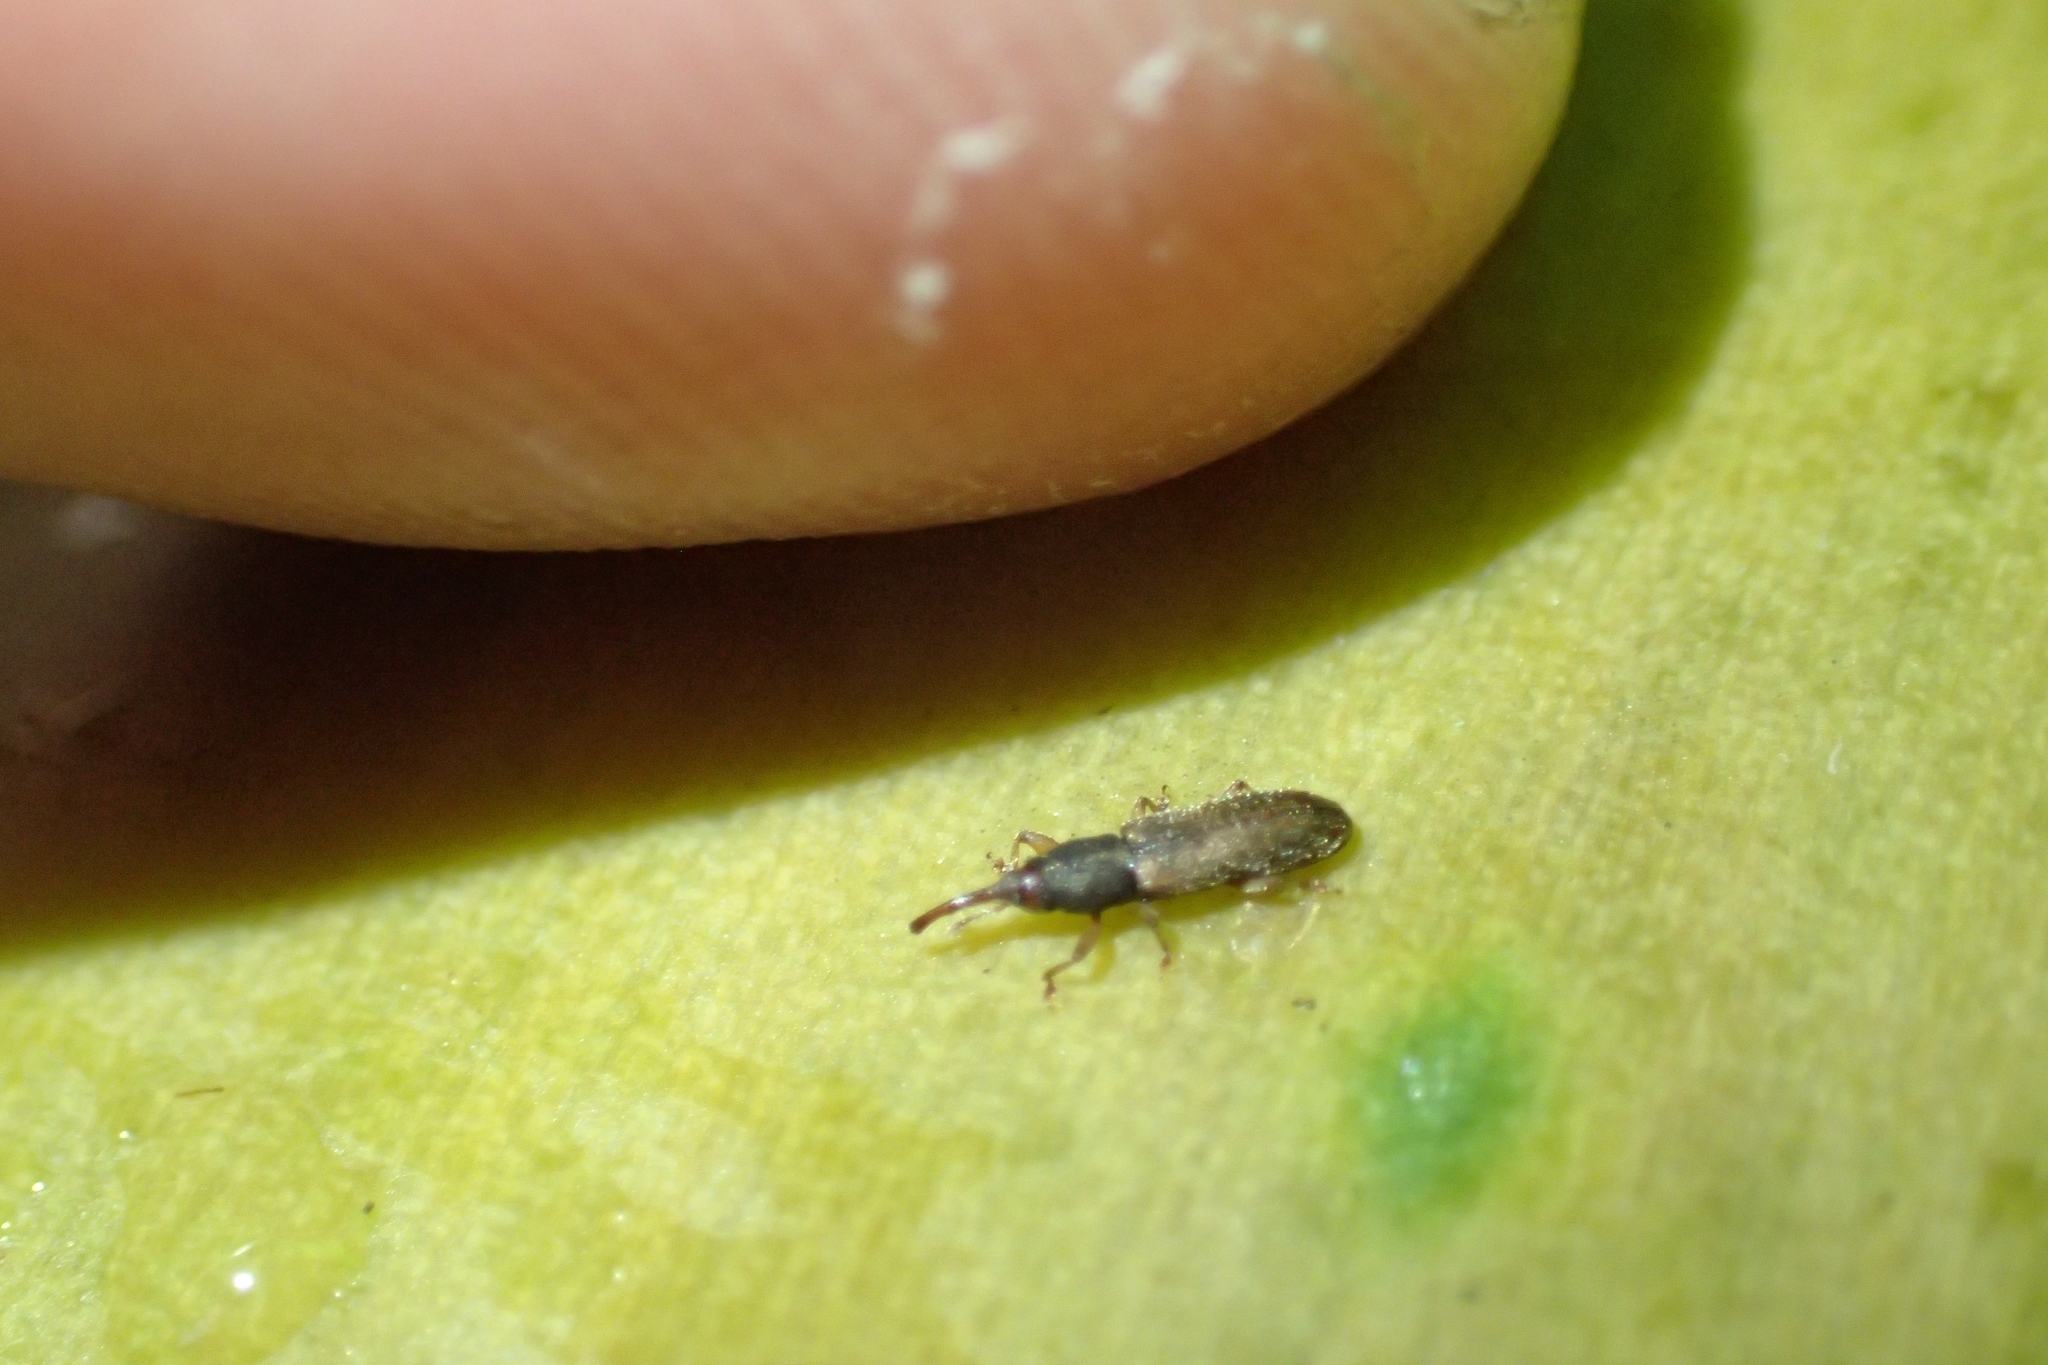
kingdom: Animalia
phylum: Arthropoda
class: Insecta
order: Coleoptera
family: Curculionidae
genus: Arecocryptus
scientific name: Arecocryptus bellus
